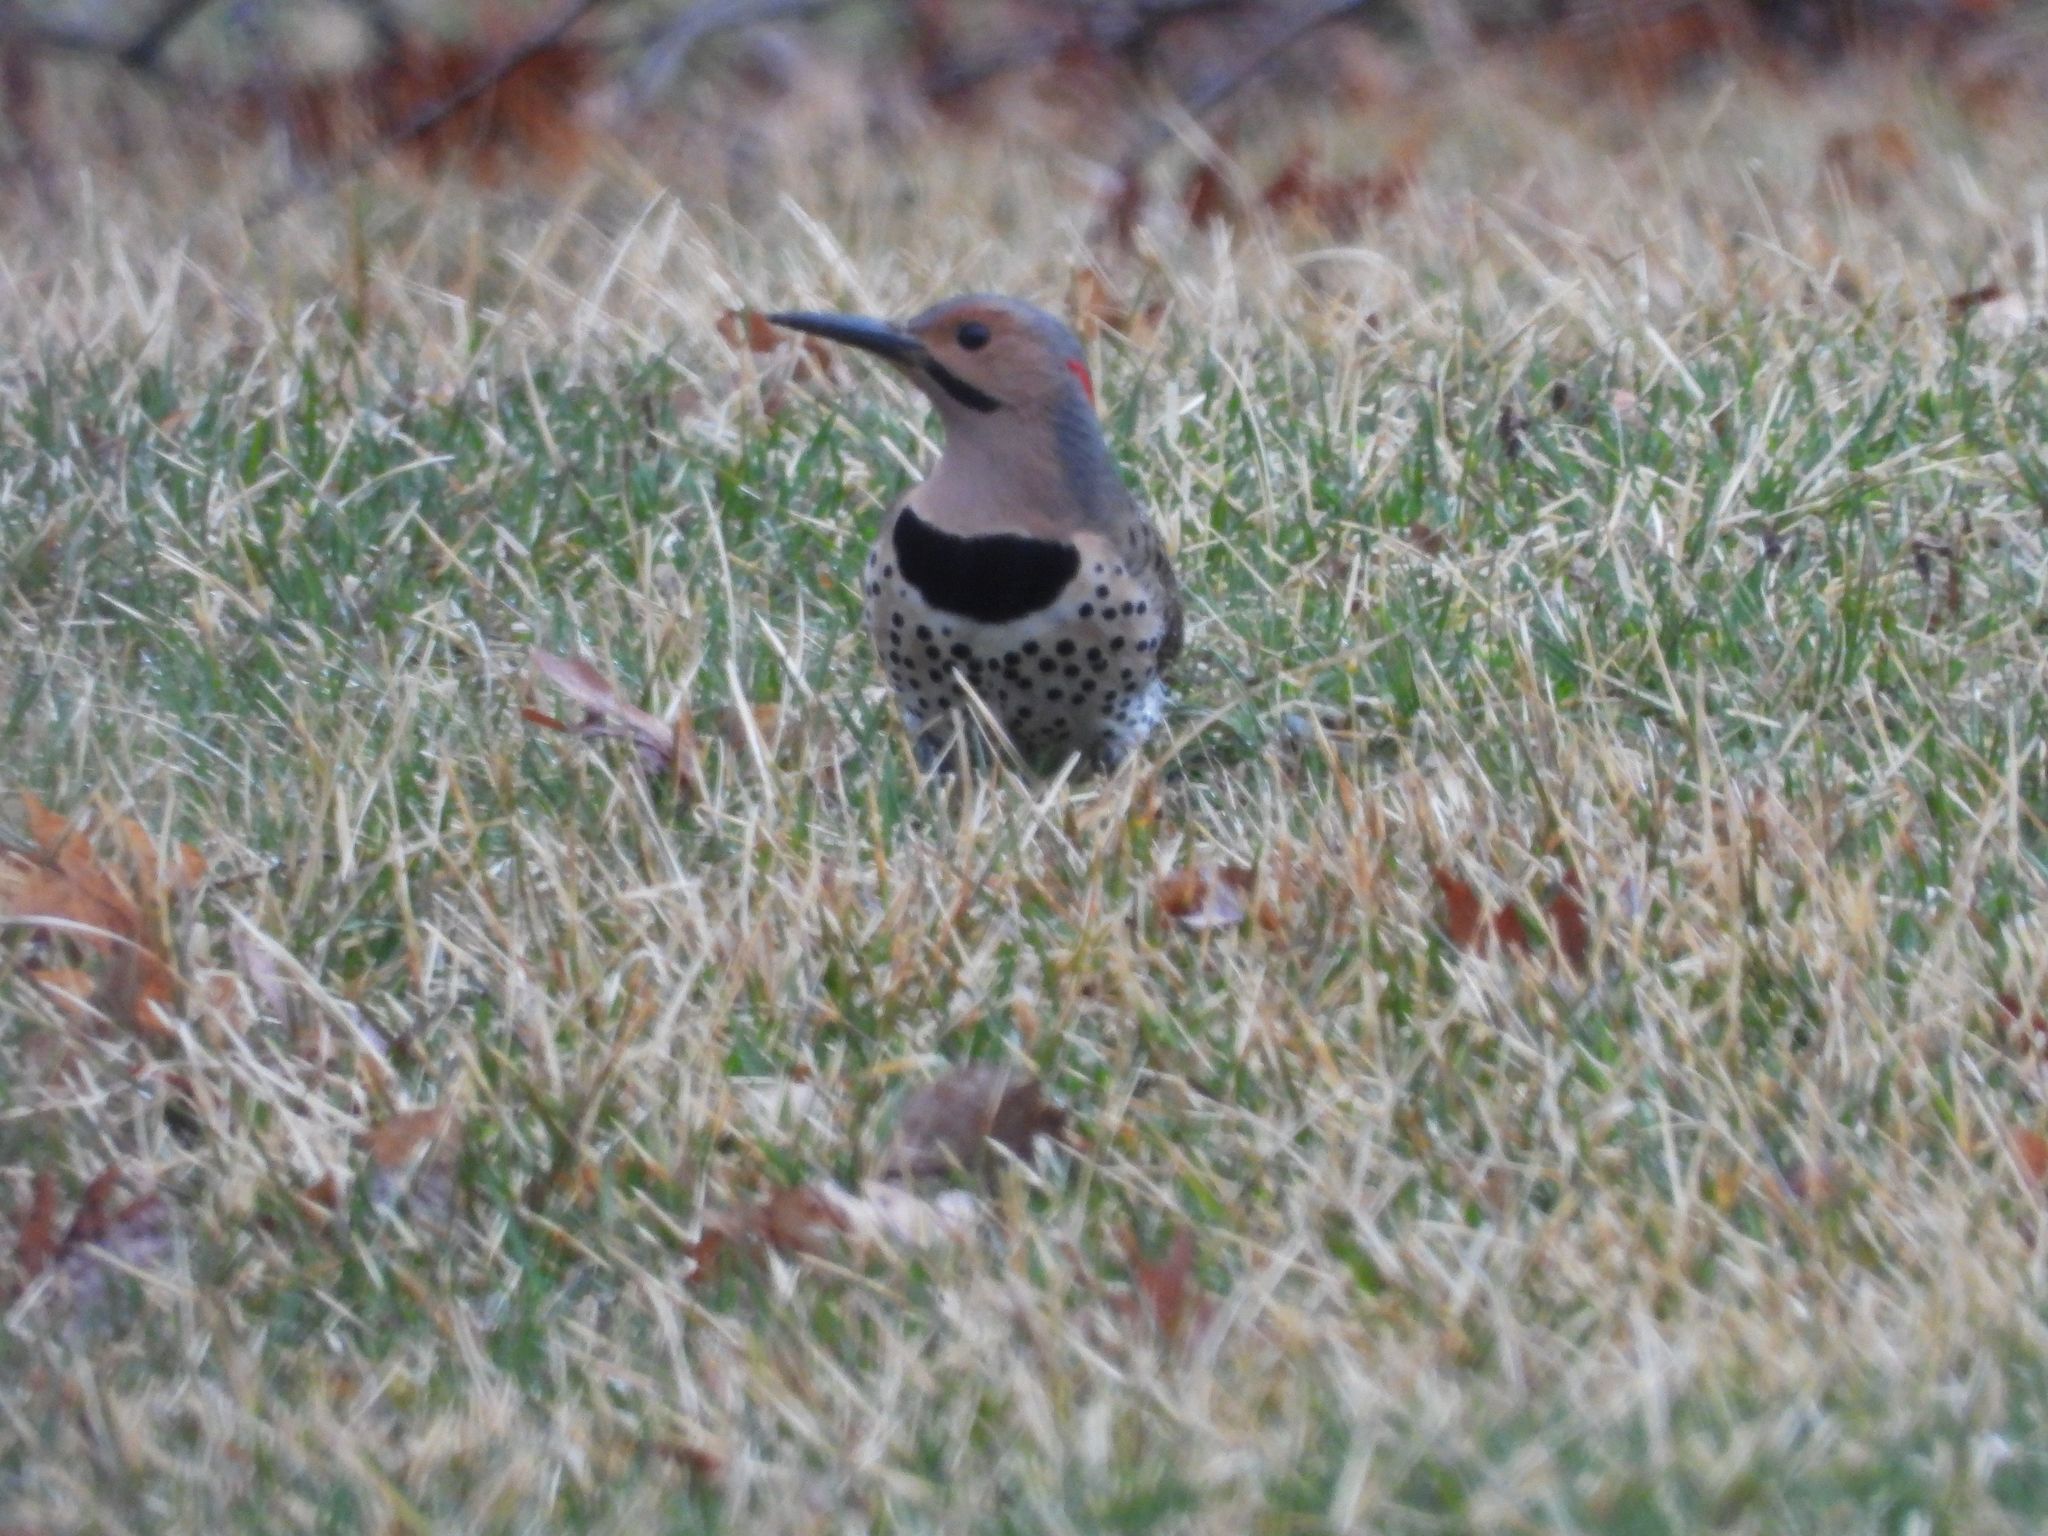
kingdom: Animalia
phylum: Chordata
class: Aves
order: Piciformes
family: Picidae
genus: Colaptes
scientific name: Colaptes auratus
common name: Northern flicker
